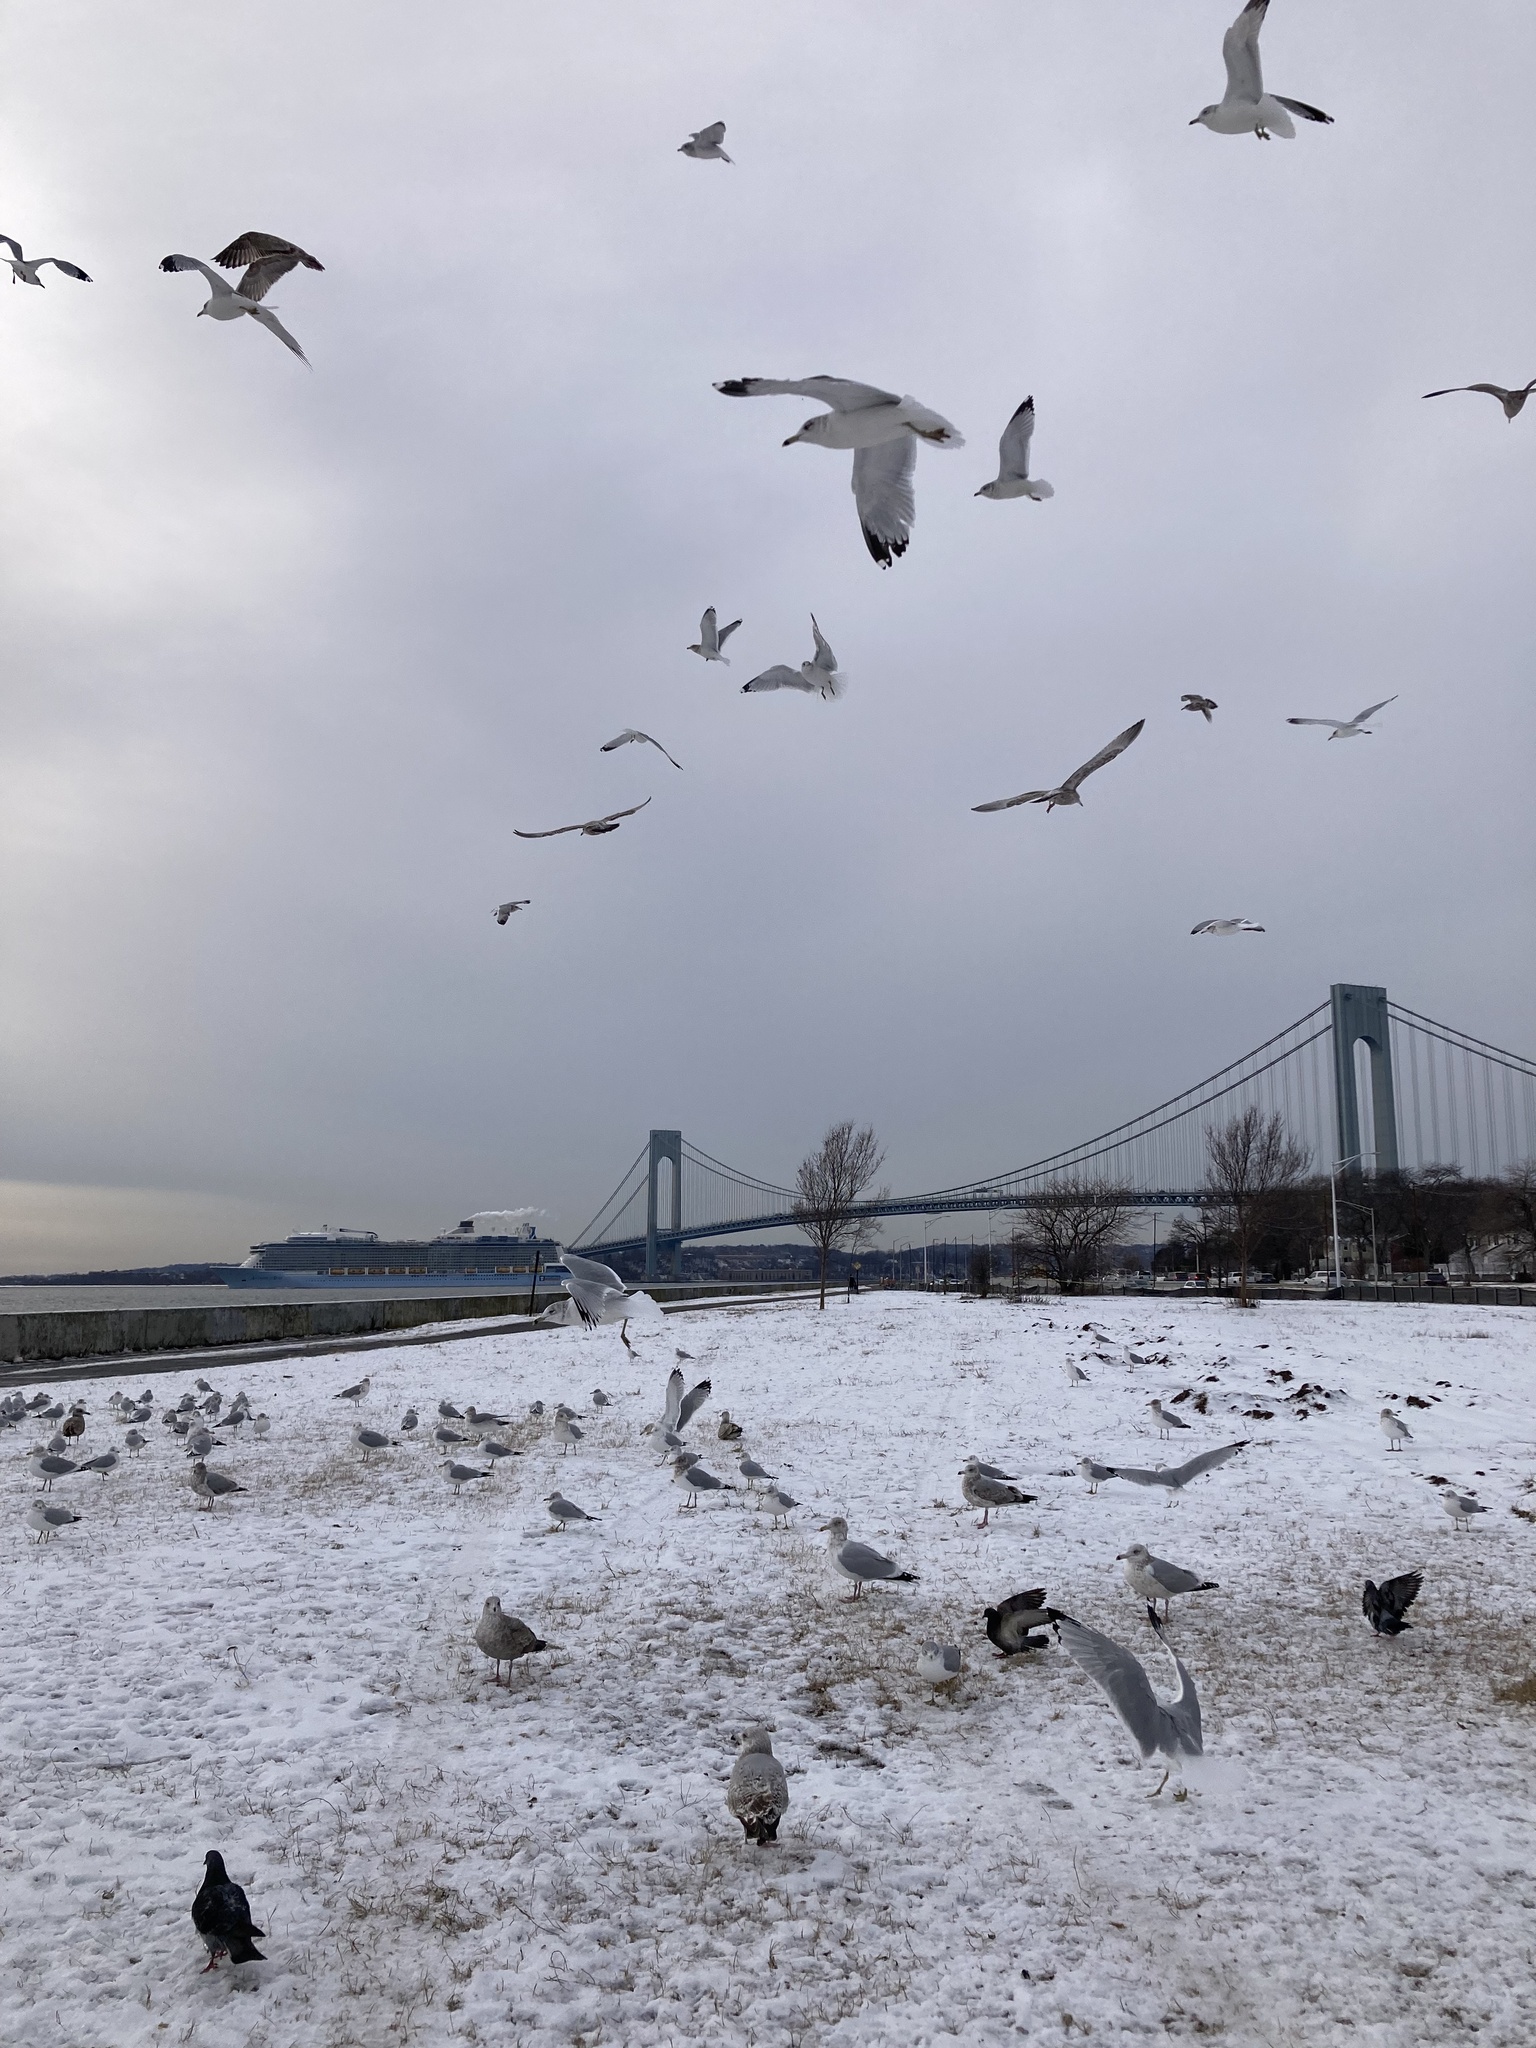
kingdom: Animalia
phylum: Chordata
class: Aves
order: Charadriiformes
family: Laridae
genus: Larus
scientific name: Larus argentatus
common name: Herring gull
